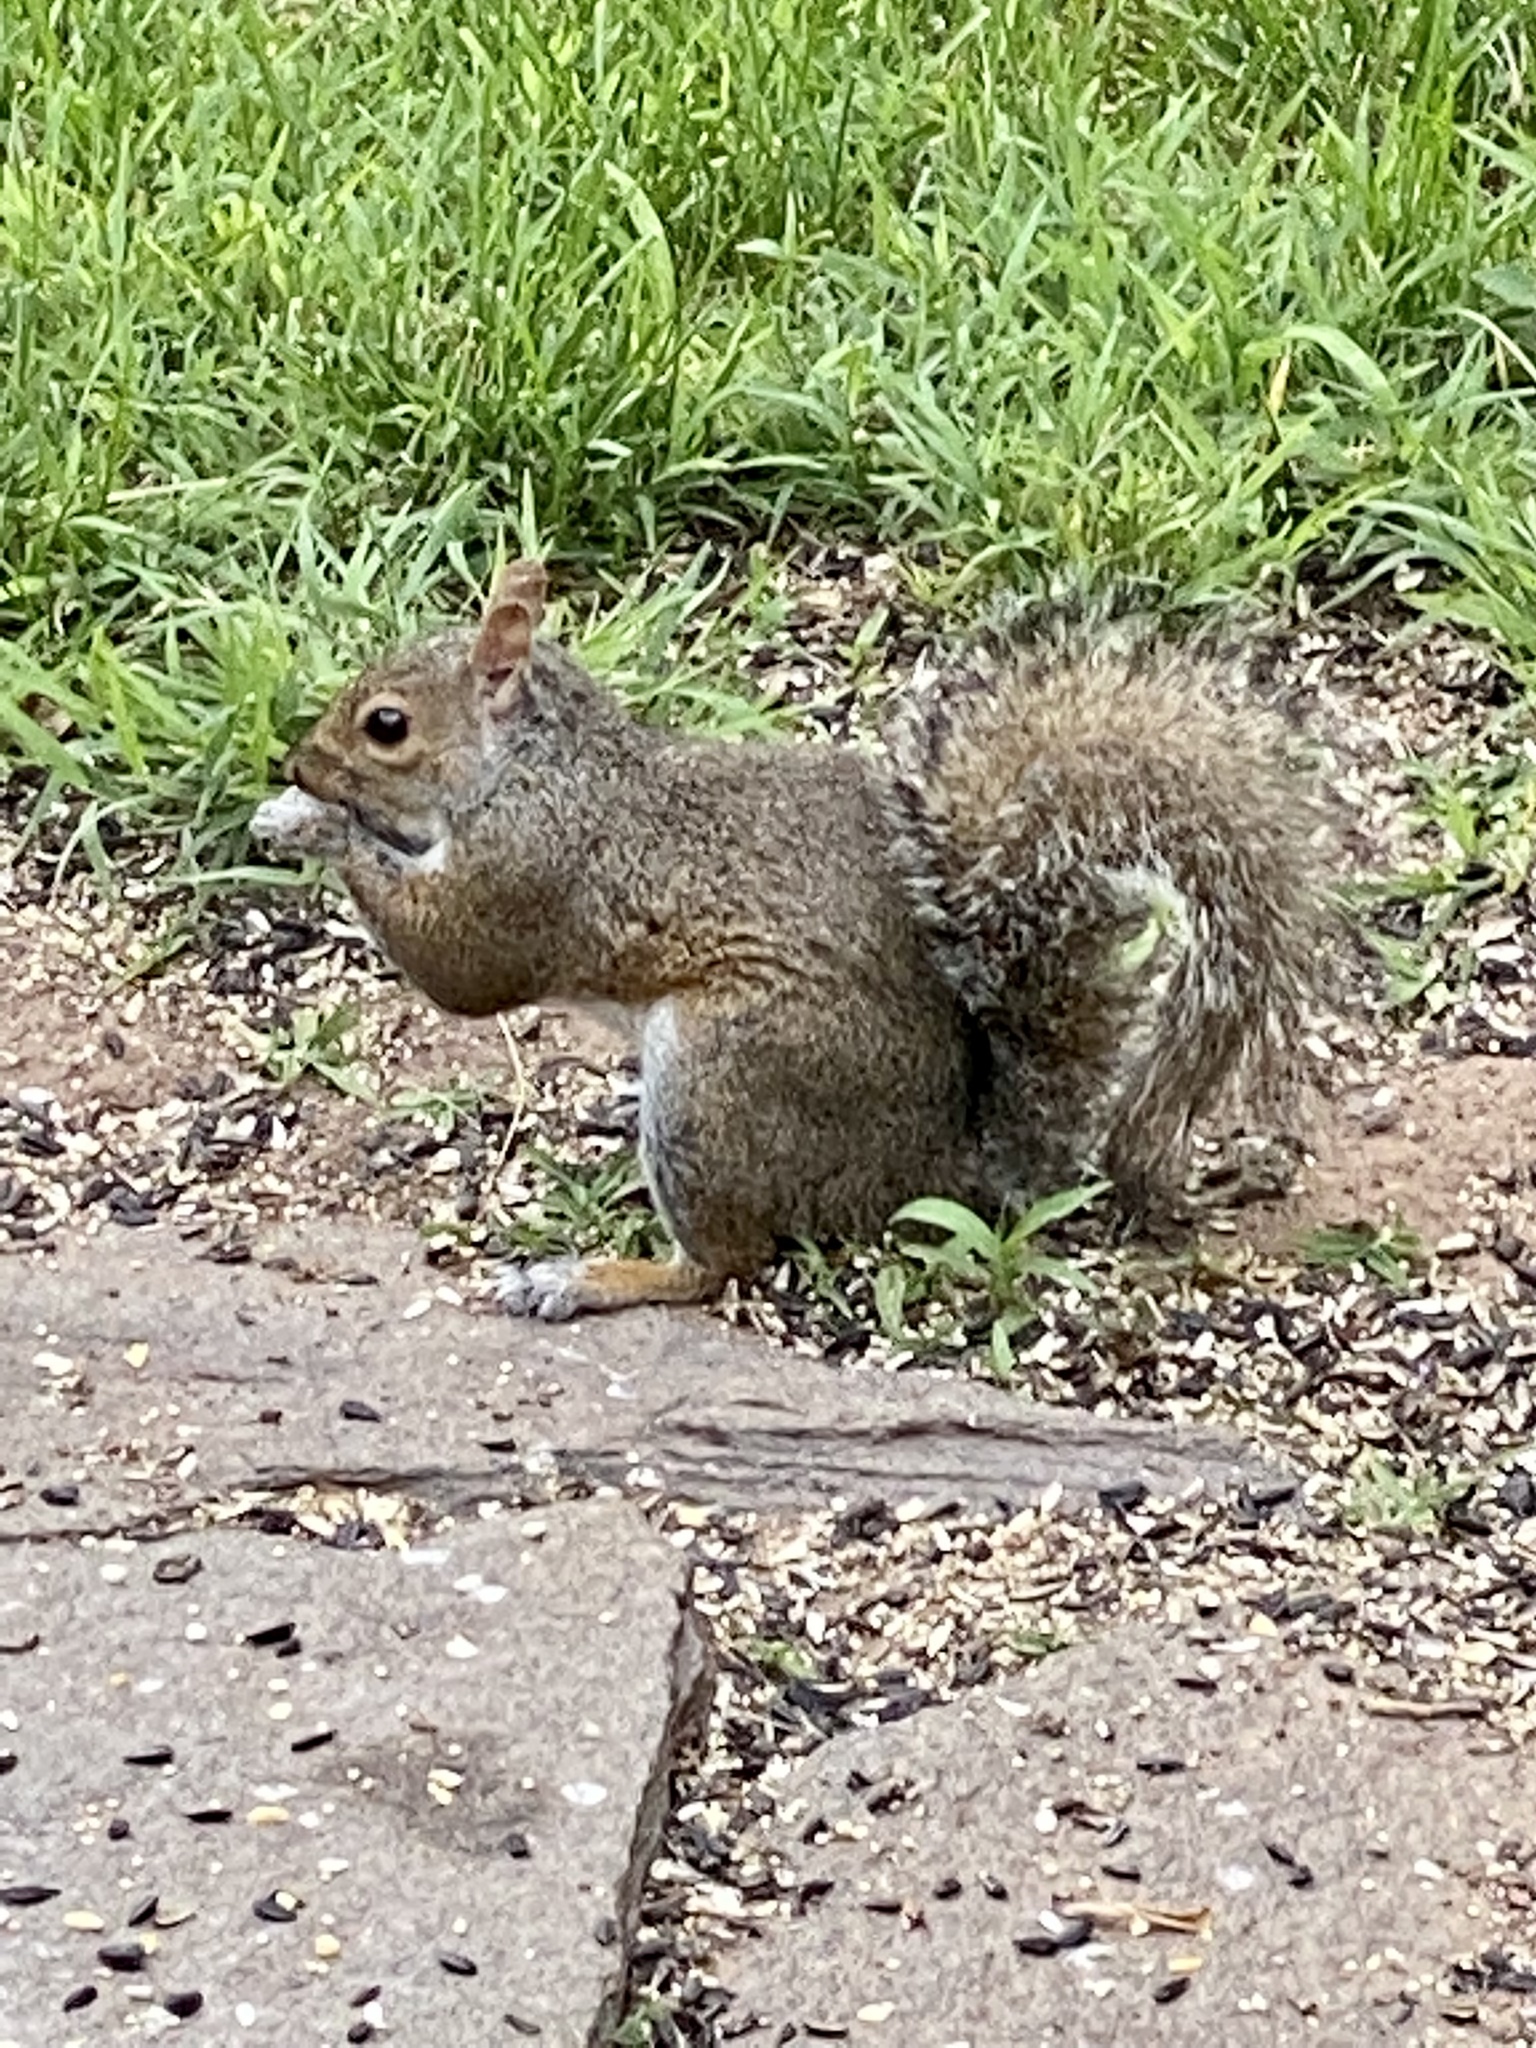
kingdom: Animalia
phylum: Chordata
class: Mammalia
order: Rodentia
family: Sciuridae
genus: Sciurus
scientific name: Sciurus carolinensis
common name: Eastern gray squirrel
